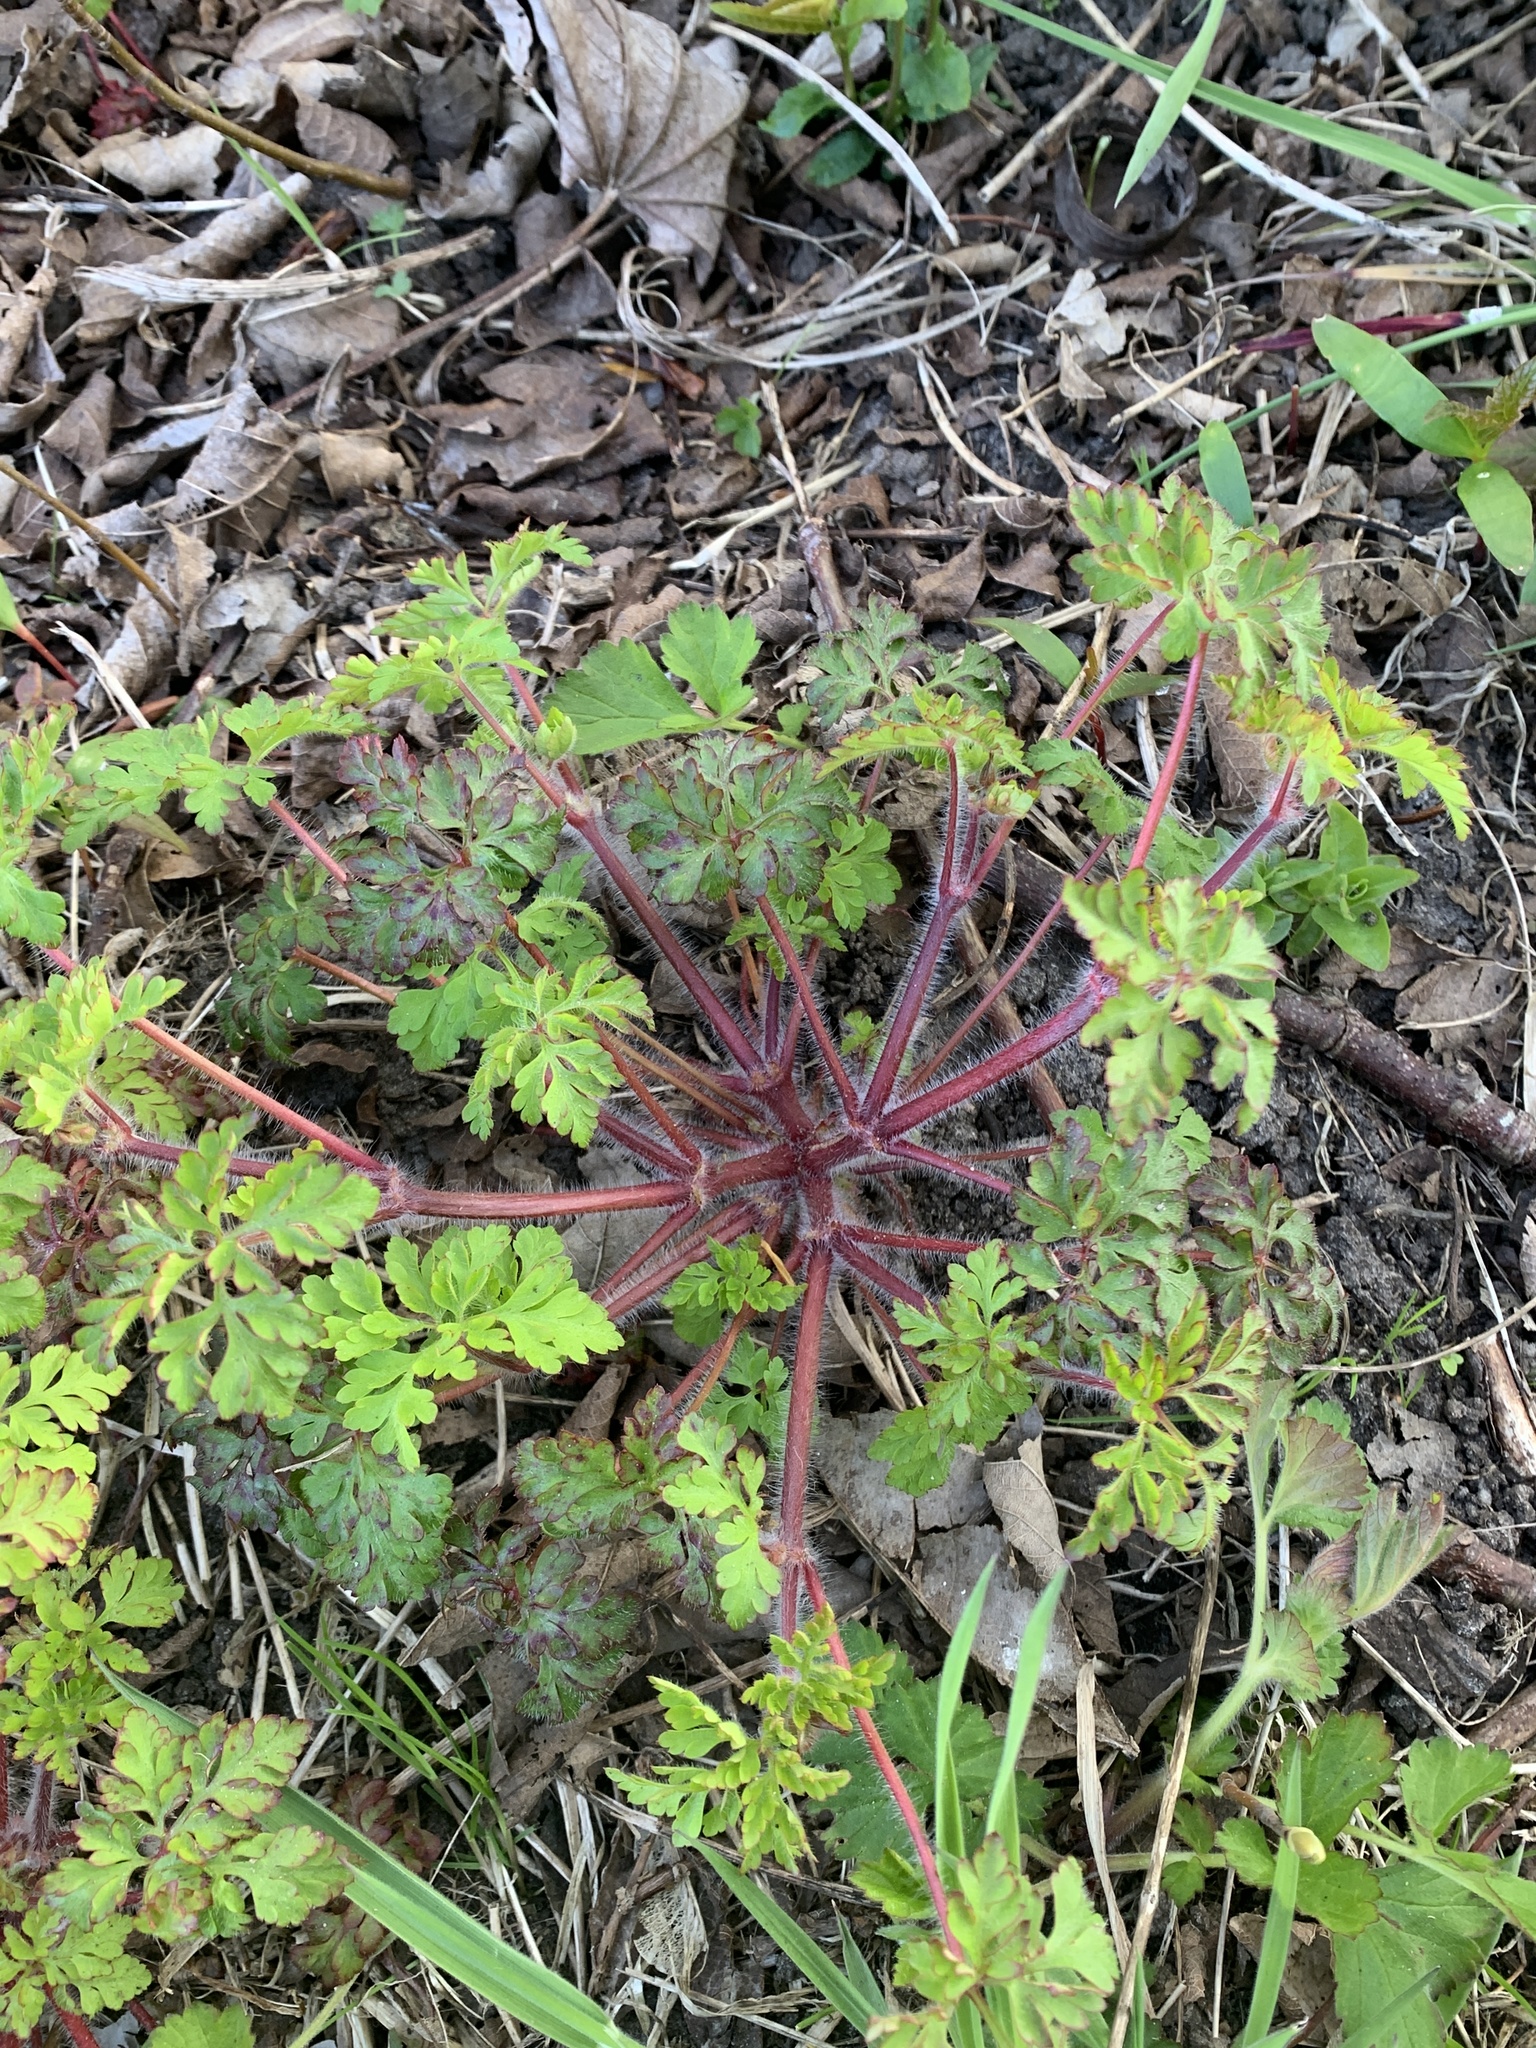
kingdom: Plantae
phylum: Tracheophyta
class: Magnoliopsida
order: Geraniales
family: Geraniaceae
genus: Geranium
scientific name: Geranium robertianum
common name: Herb-robert
